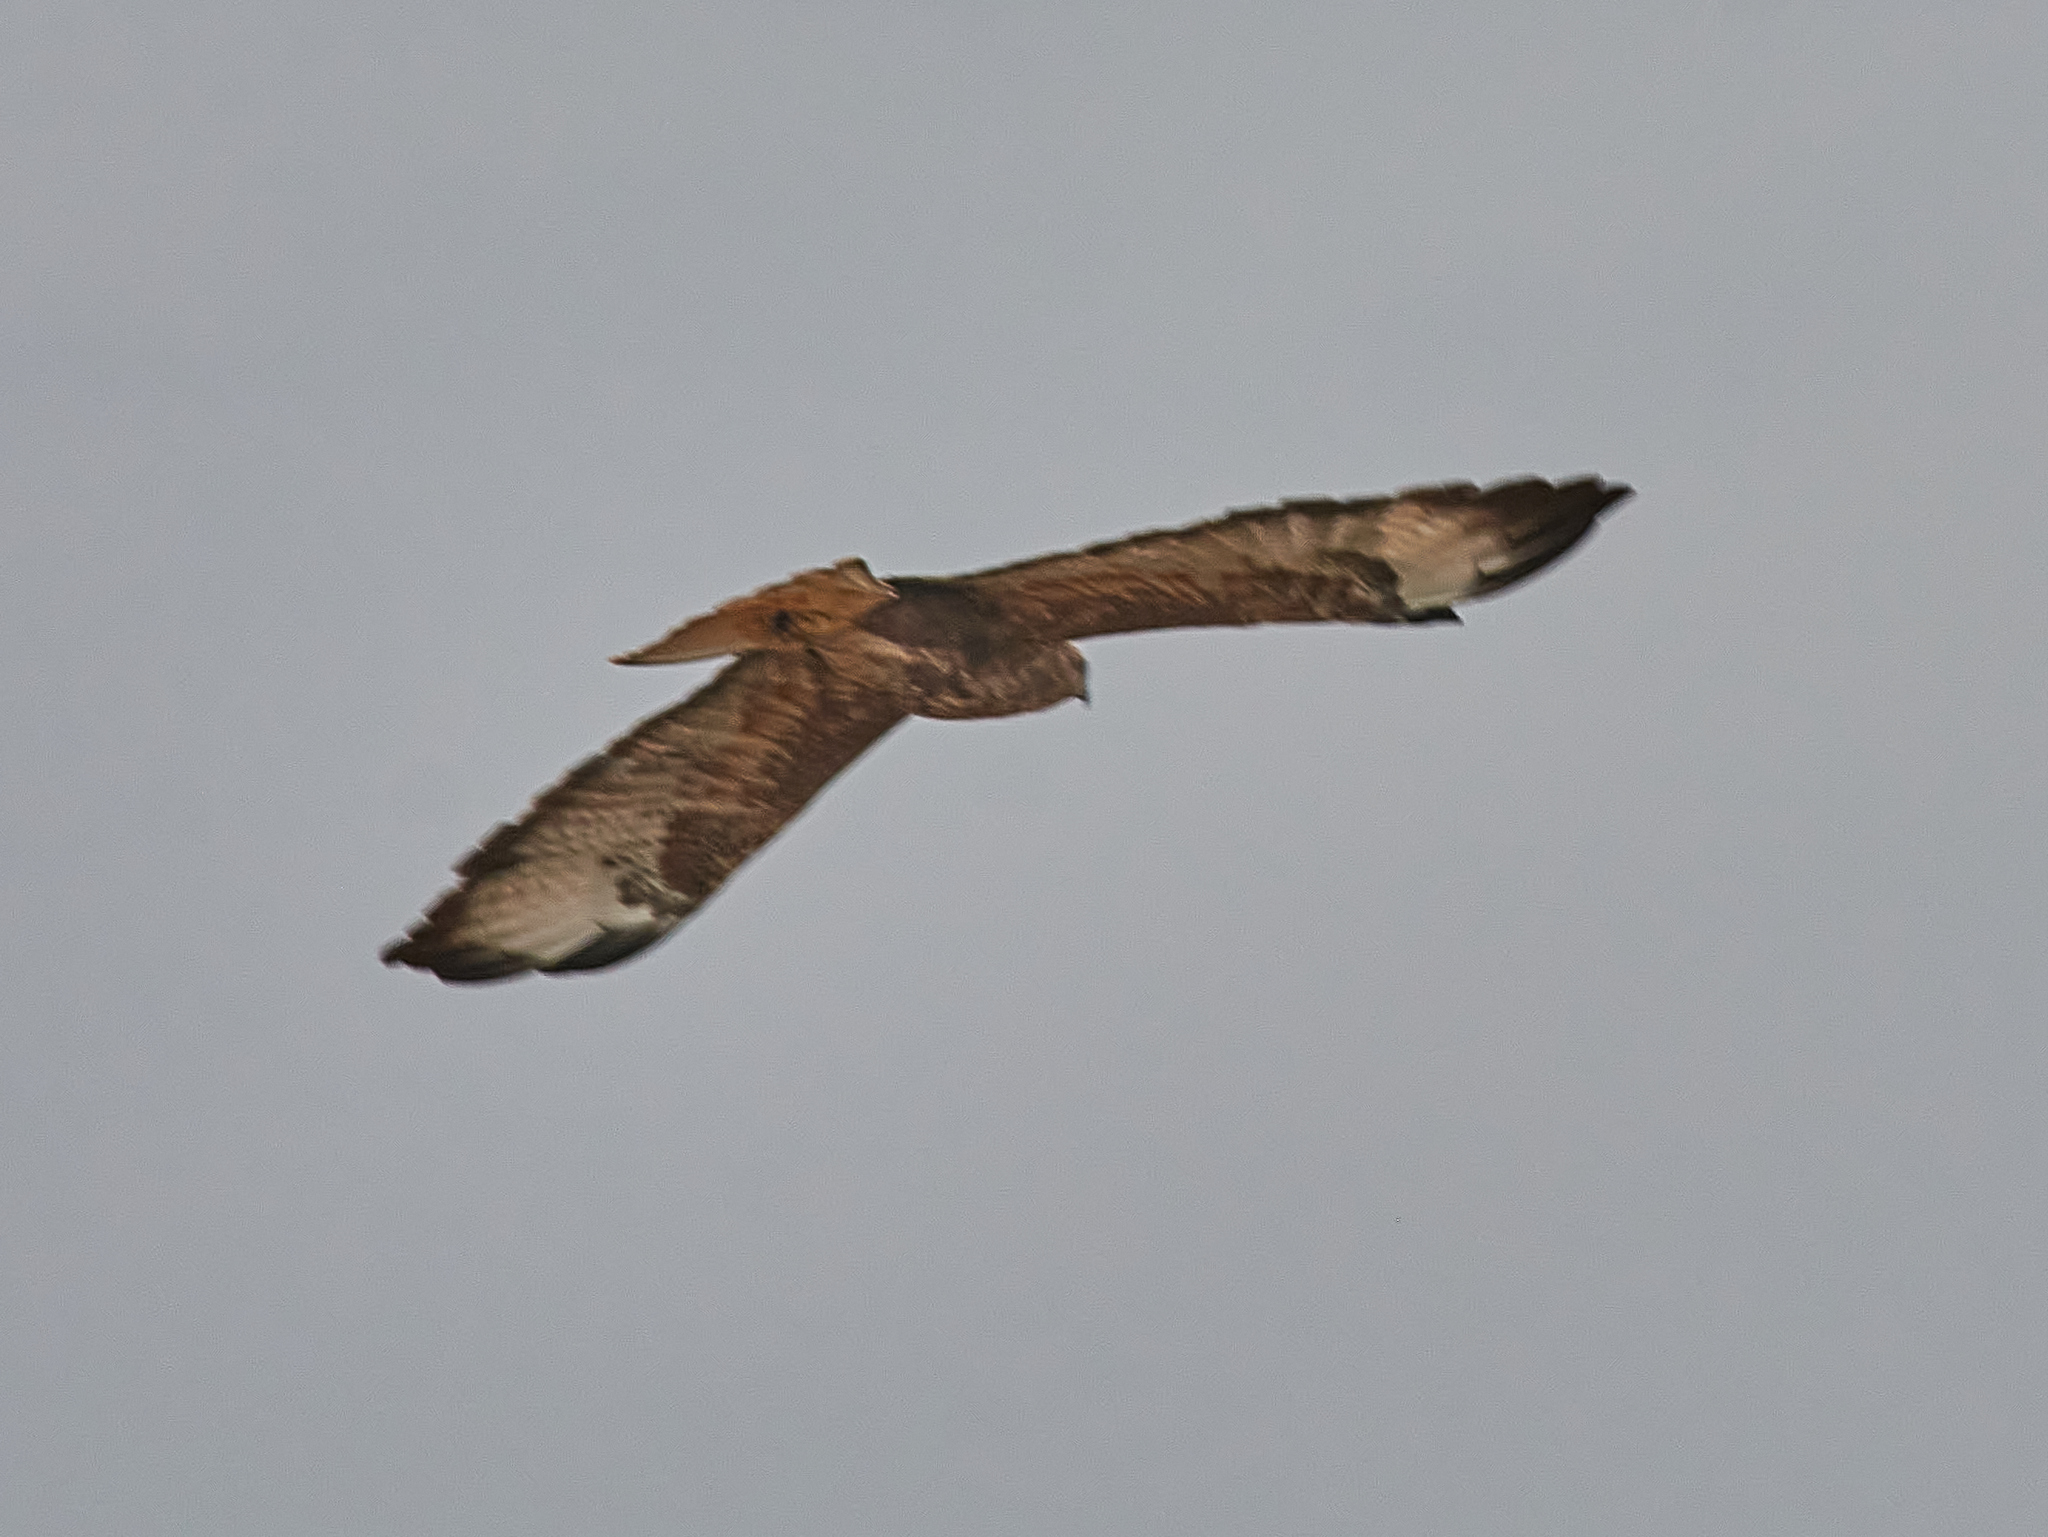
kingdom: Animalia
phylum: Chordata
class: Aves
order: Accipitriformes
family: Accipitridae
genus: Buteo
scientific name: Buteo buteo
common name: Common buzzard
